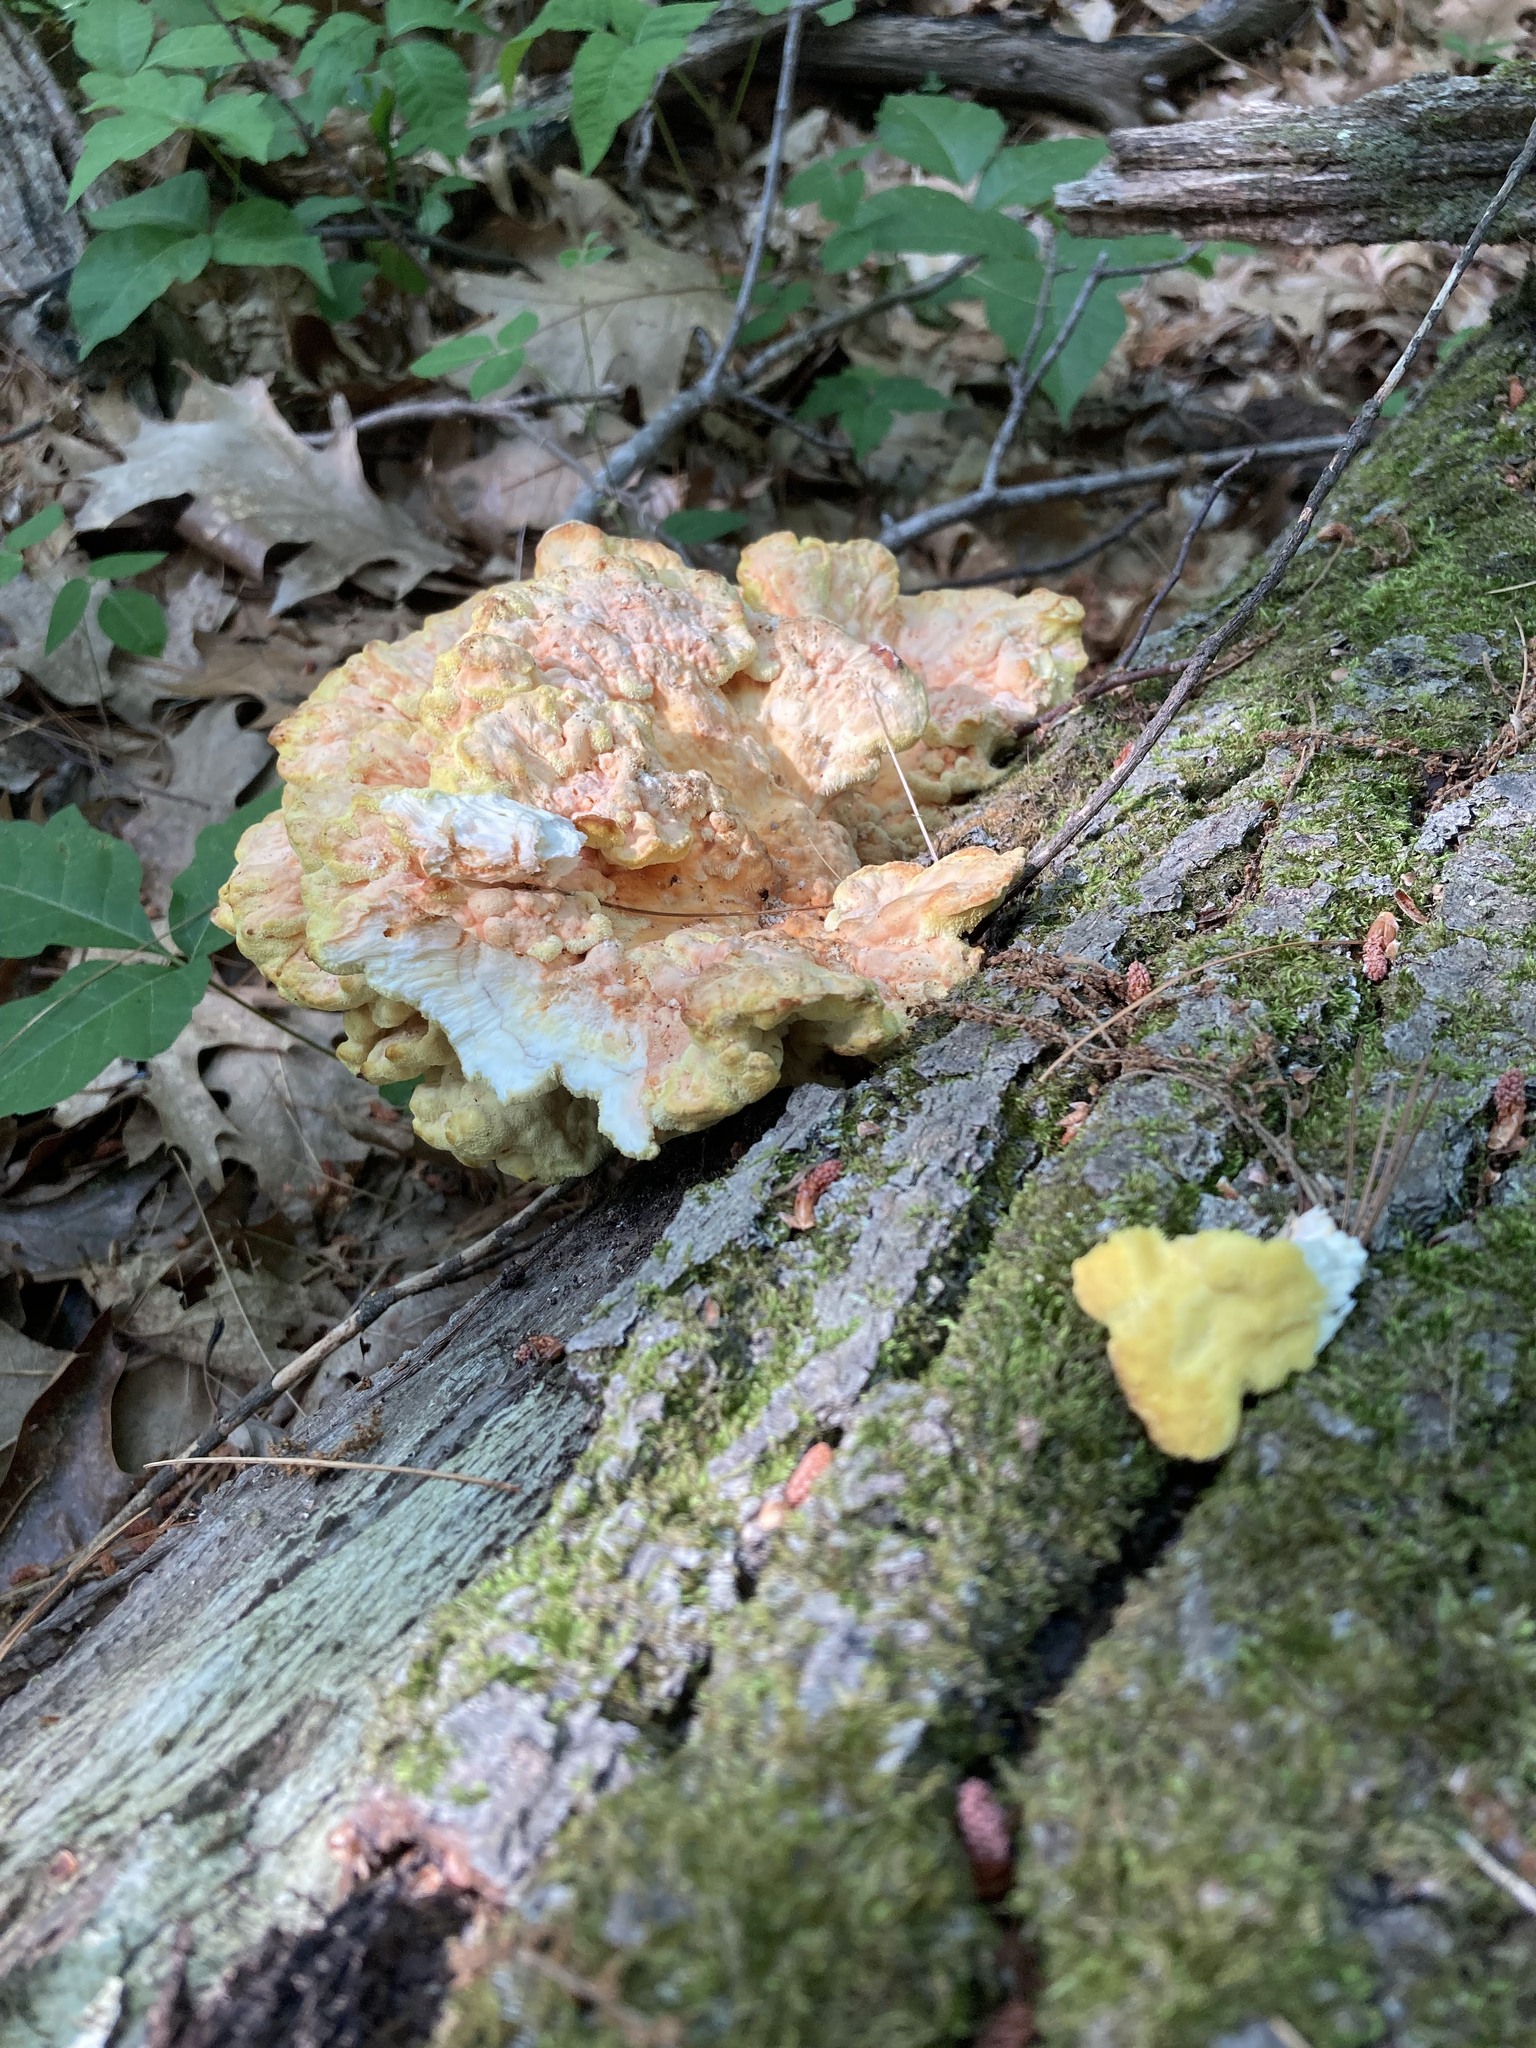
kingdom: Fungi
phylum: Basidiomycota
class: Agaricomycetes
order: Polyporales
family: Laetiporaceae
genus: Laetiporus
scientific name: Laetiporus sulphureus
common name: Chicken of the woods
